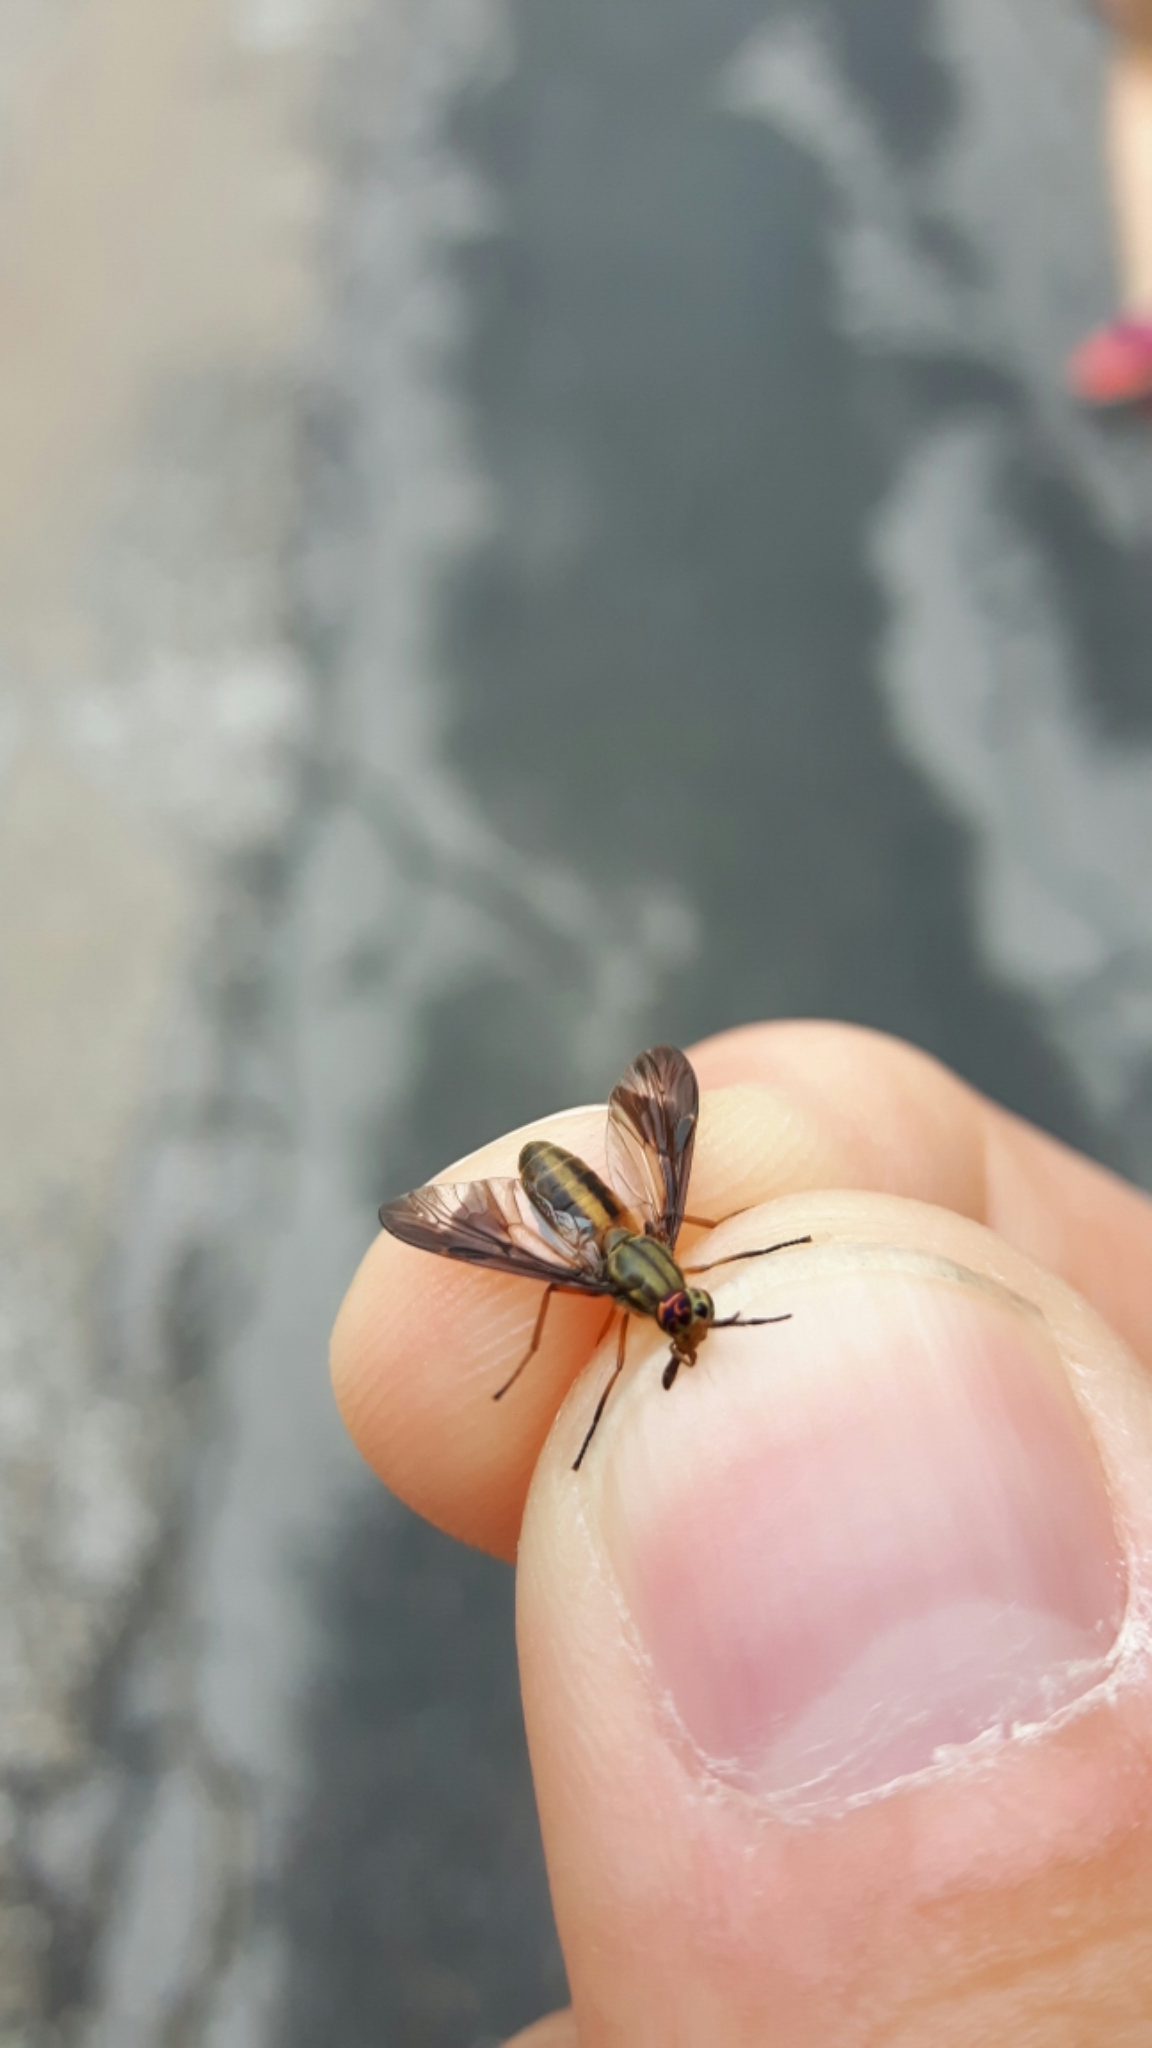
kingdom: Animalia
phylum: Arthropoda
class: Insecta
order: Diptera
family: Tabanidae
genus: Chrysops
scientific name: Chrysops vittatus
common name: Striped deer fly
